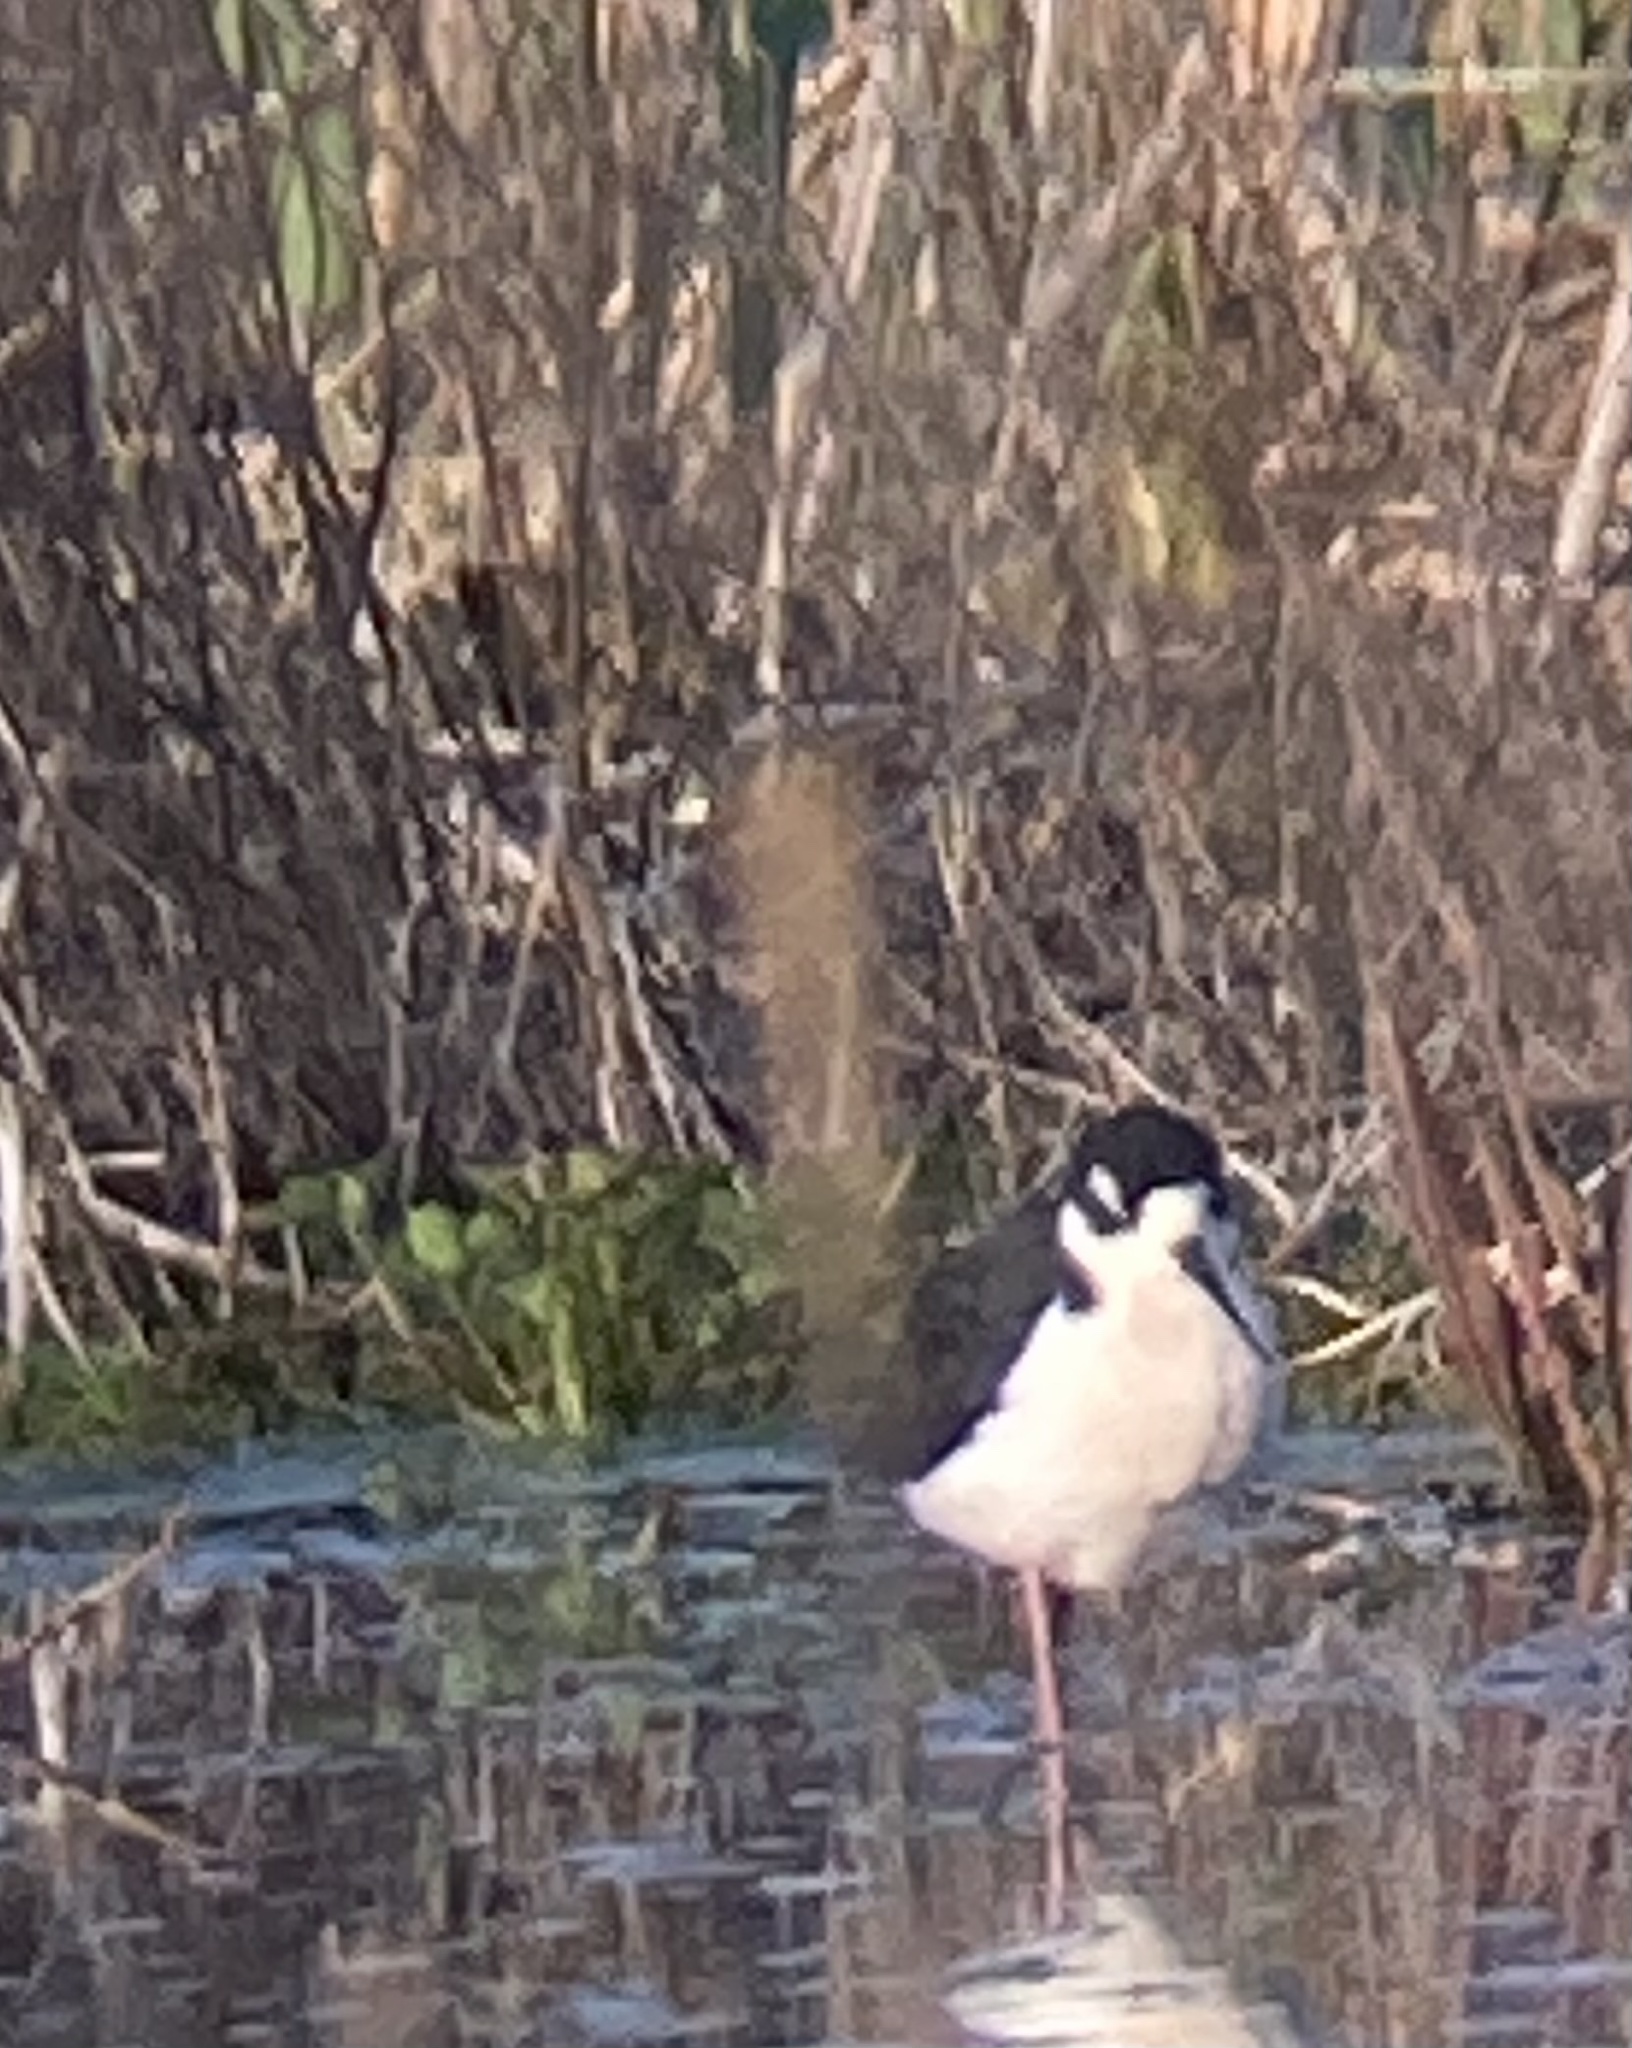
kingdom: Animalia
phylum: Chordata
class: Aves
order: Charadriiformes
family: Recurvirostridae
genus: Himantopus
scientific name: Himantopus mexicanus
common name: Black-necked stilt
